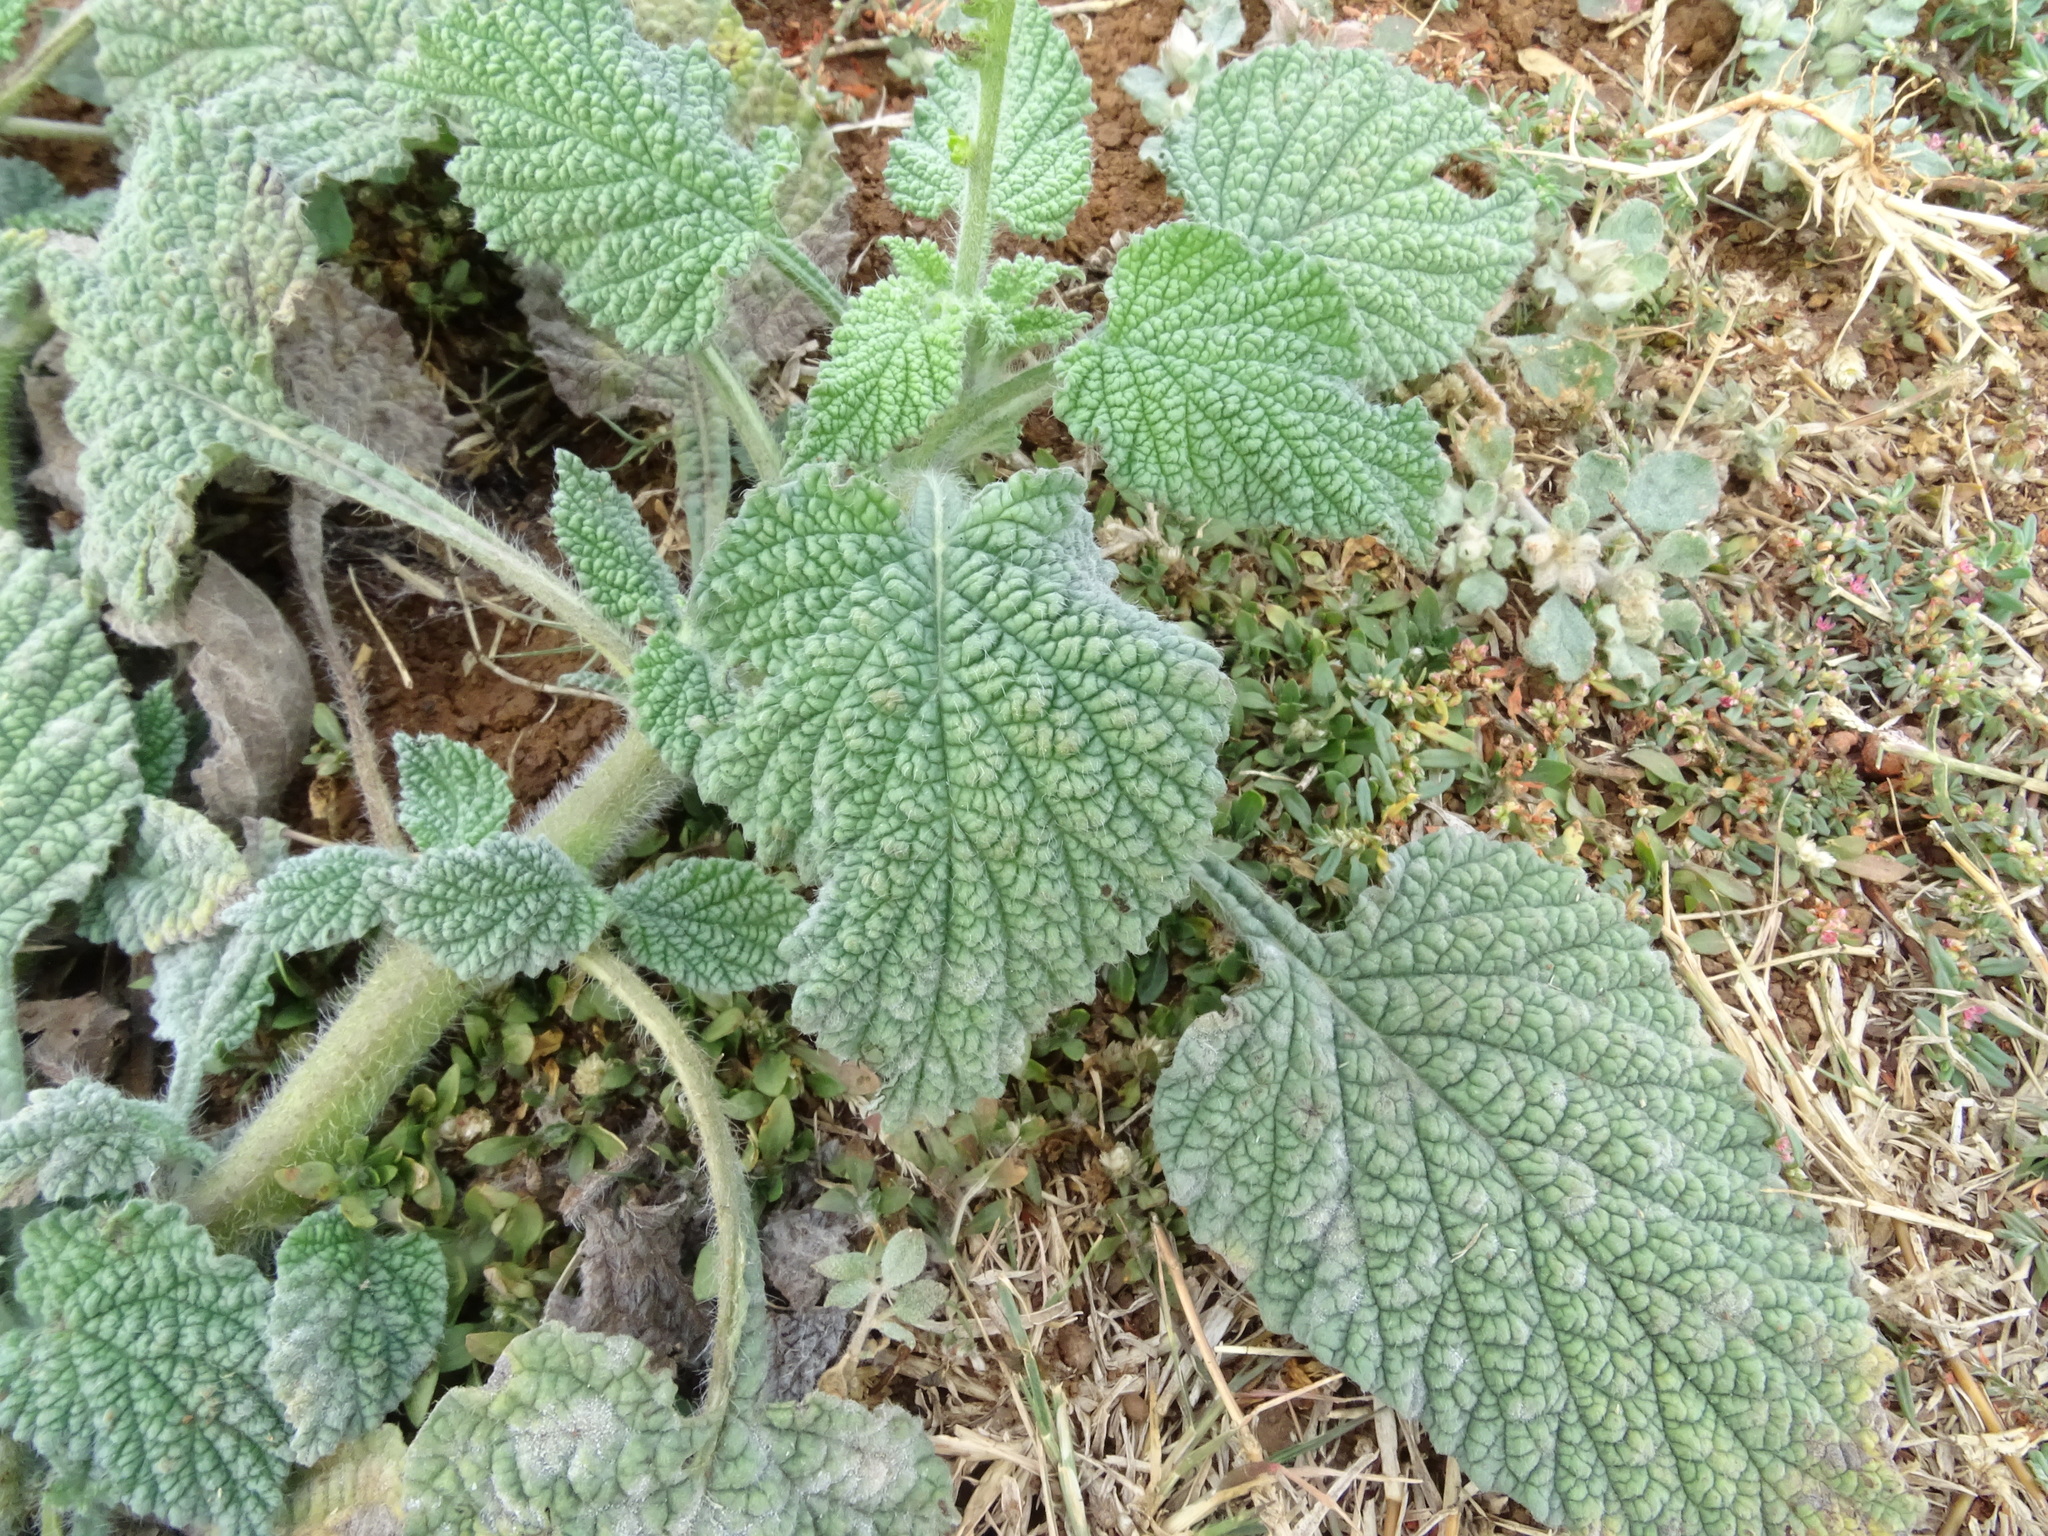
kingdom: Plantae
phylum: Tracheophyta
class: Magnoliopsida
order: Boraginales
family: Heliotropiaceae
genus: Heliotropium
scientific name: Heliotropium indicum
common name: Indian heliotrope
